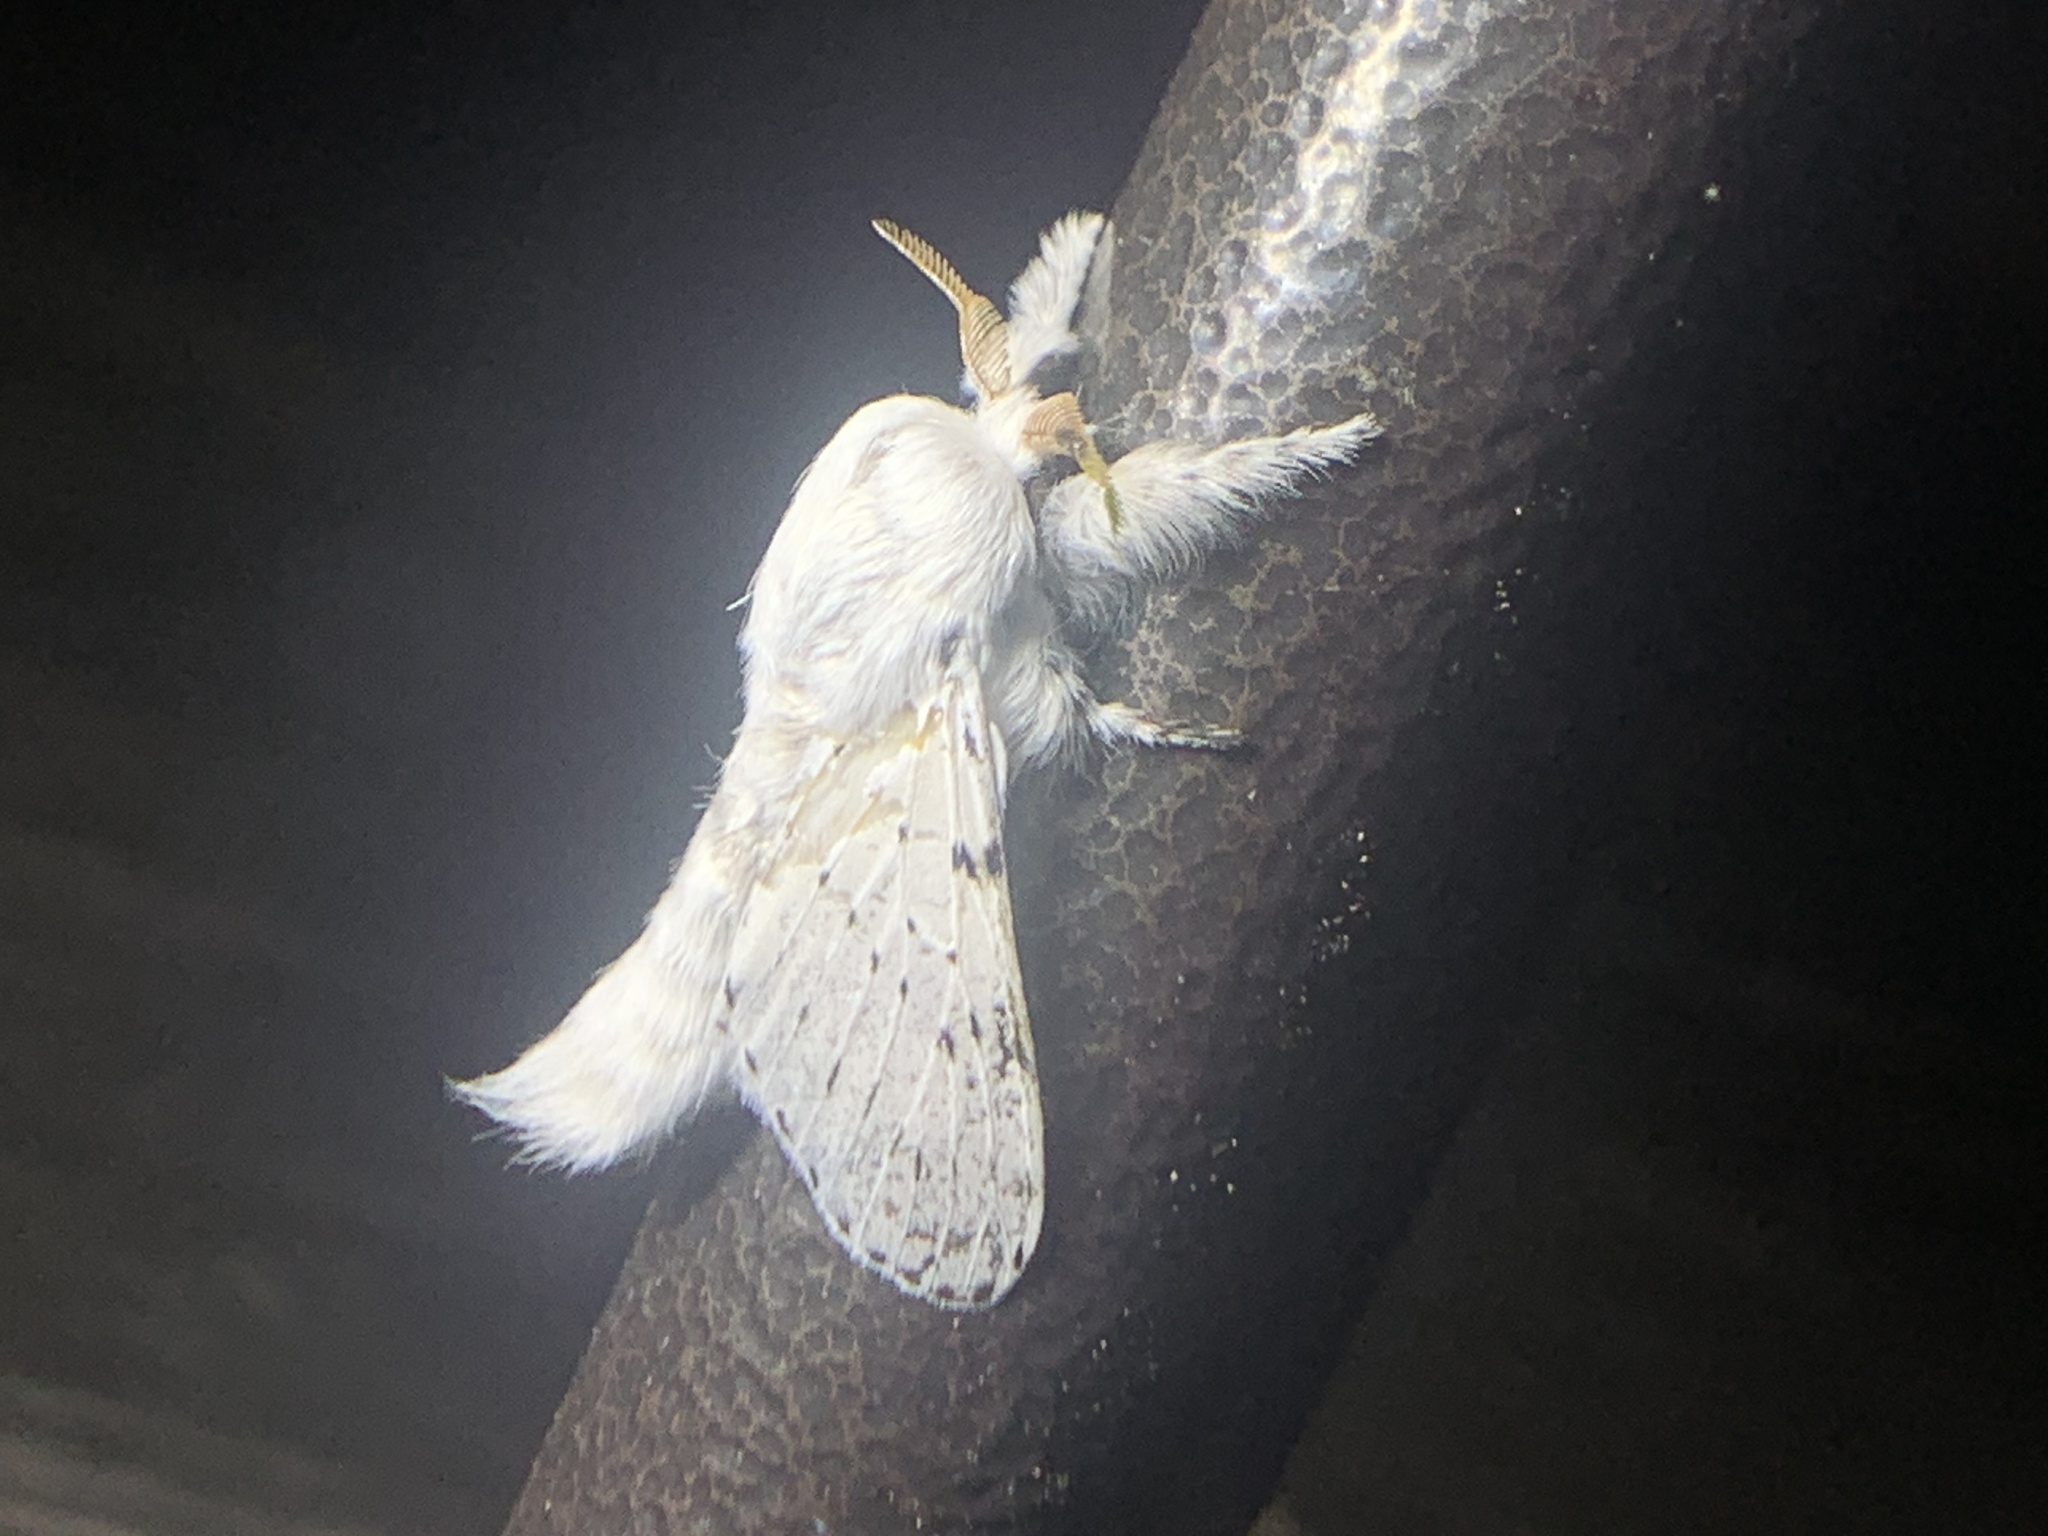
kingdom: Animalia
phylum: Arthropoda
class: Insecta
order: Lepidoptera
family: Lasiocampidae
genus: Artace
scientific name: Artace cribrarius
